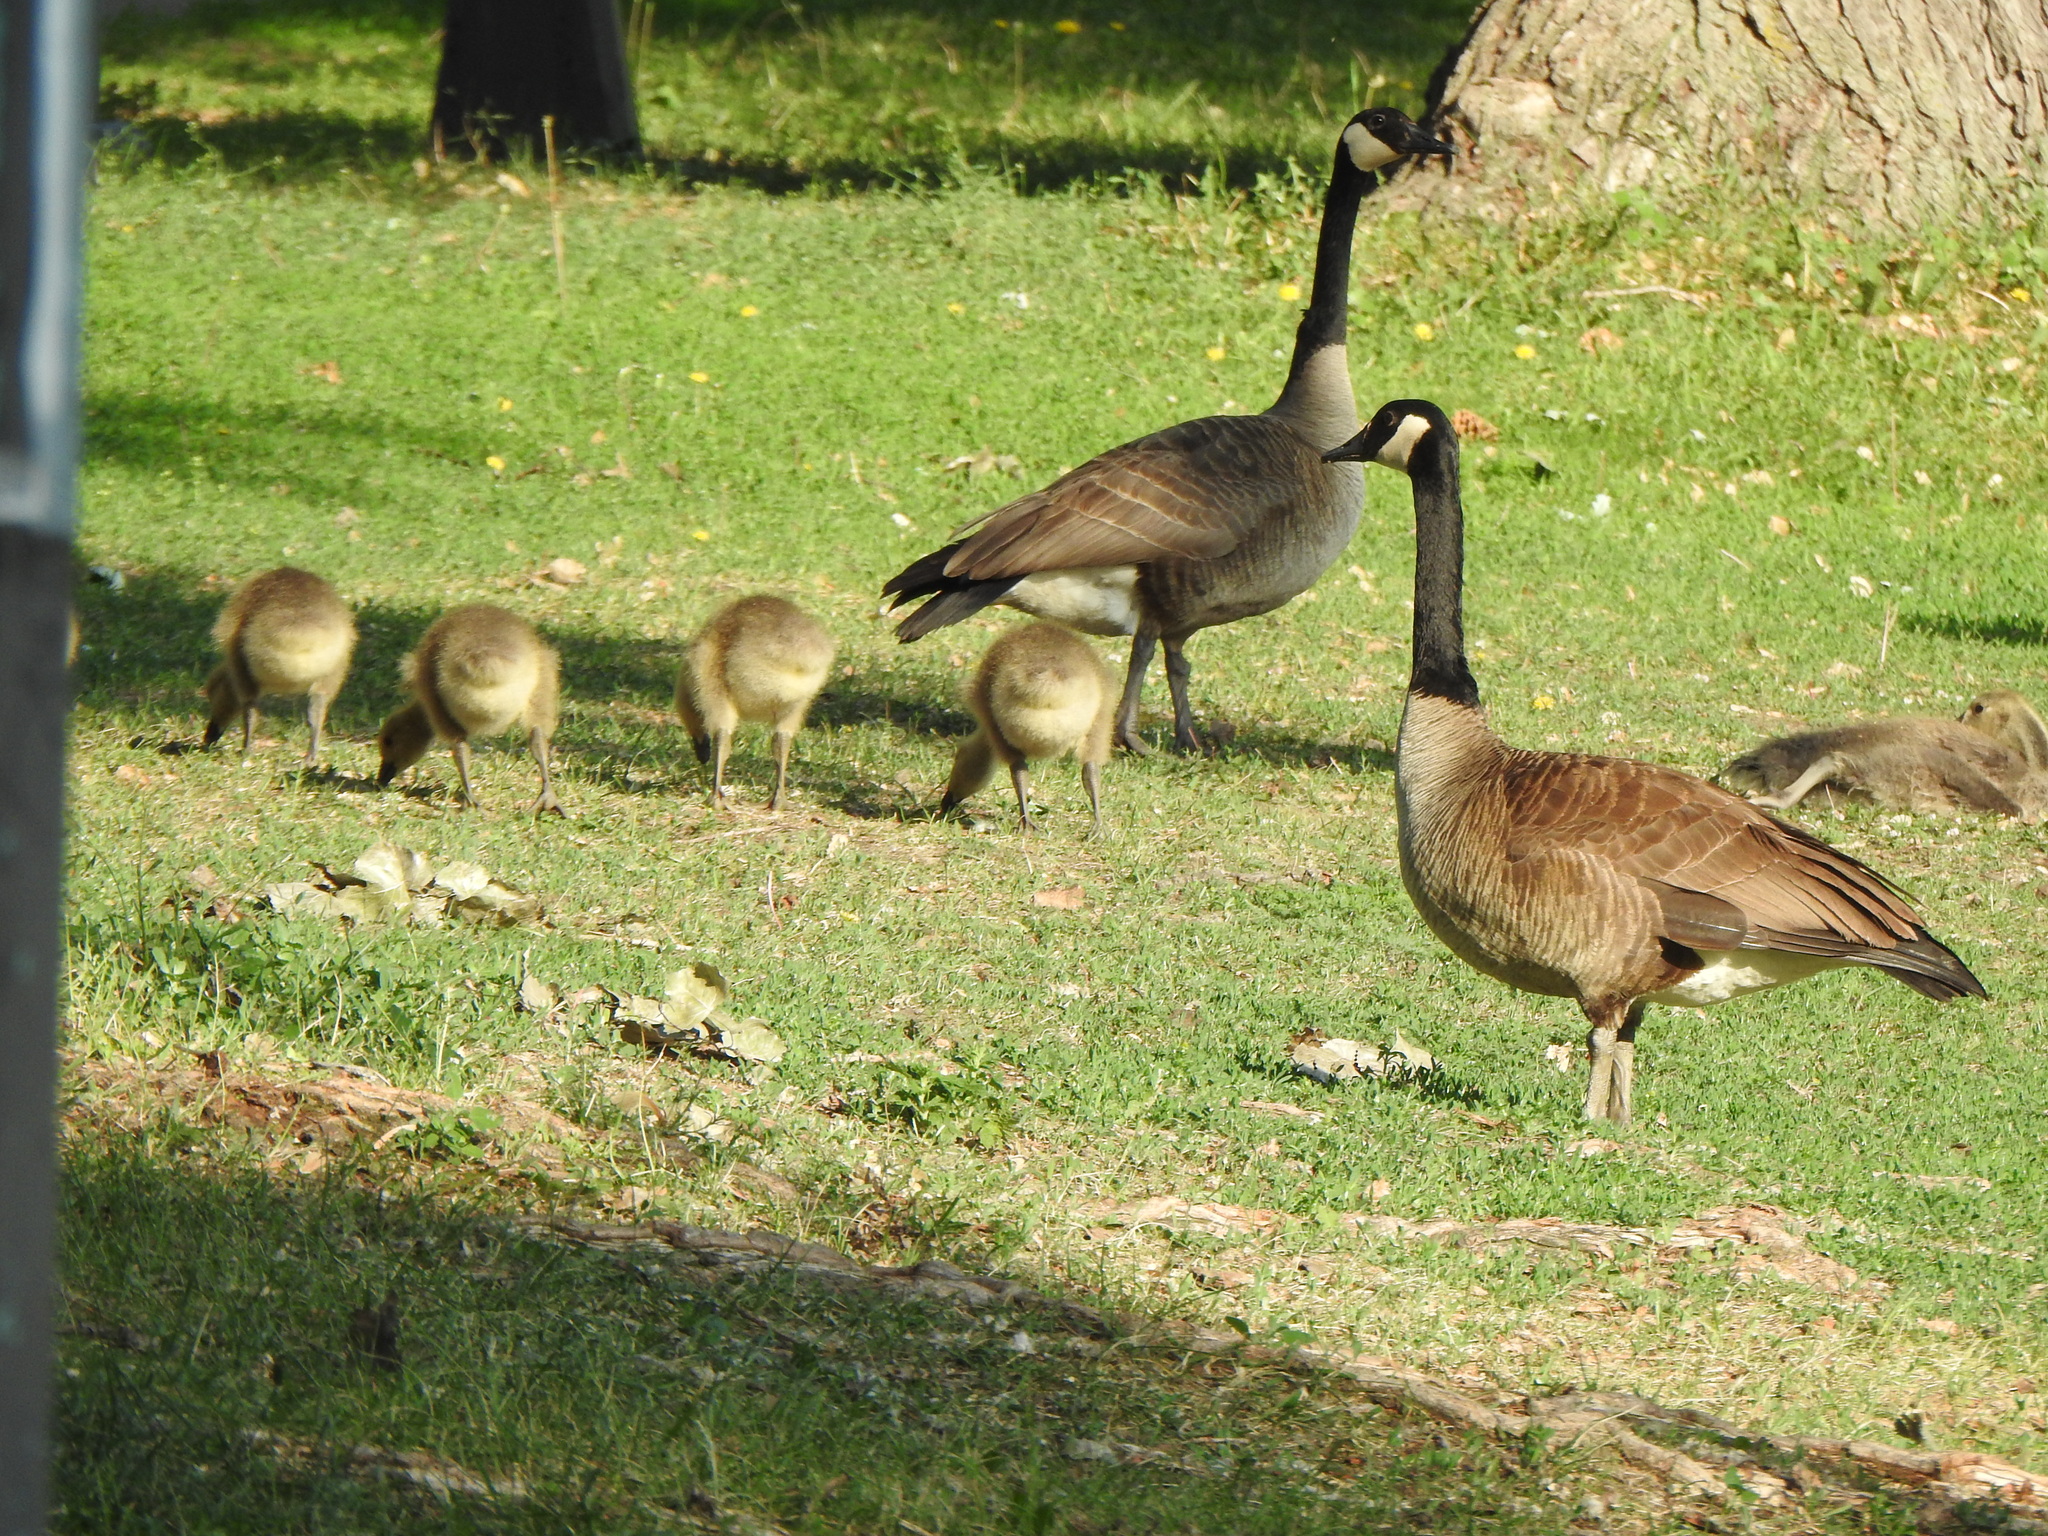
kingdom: Animalia
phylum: Chordata
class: Aves
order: Anseriformes
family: Anatidae
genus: Branta
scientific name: Branta canadensis
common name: Canada goose
